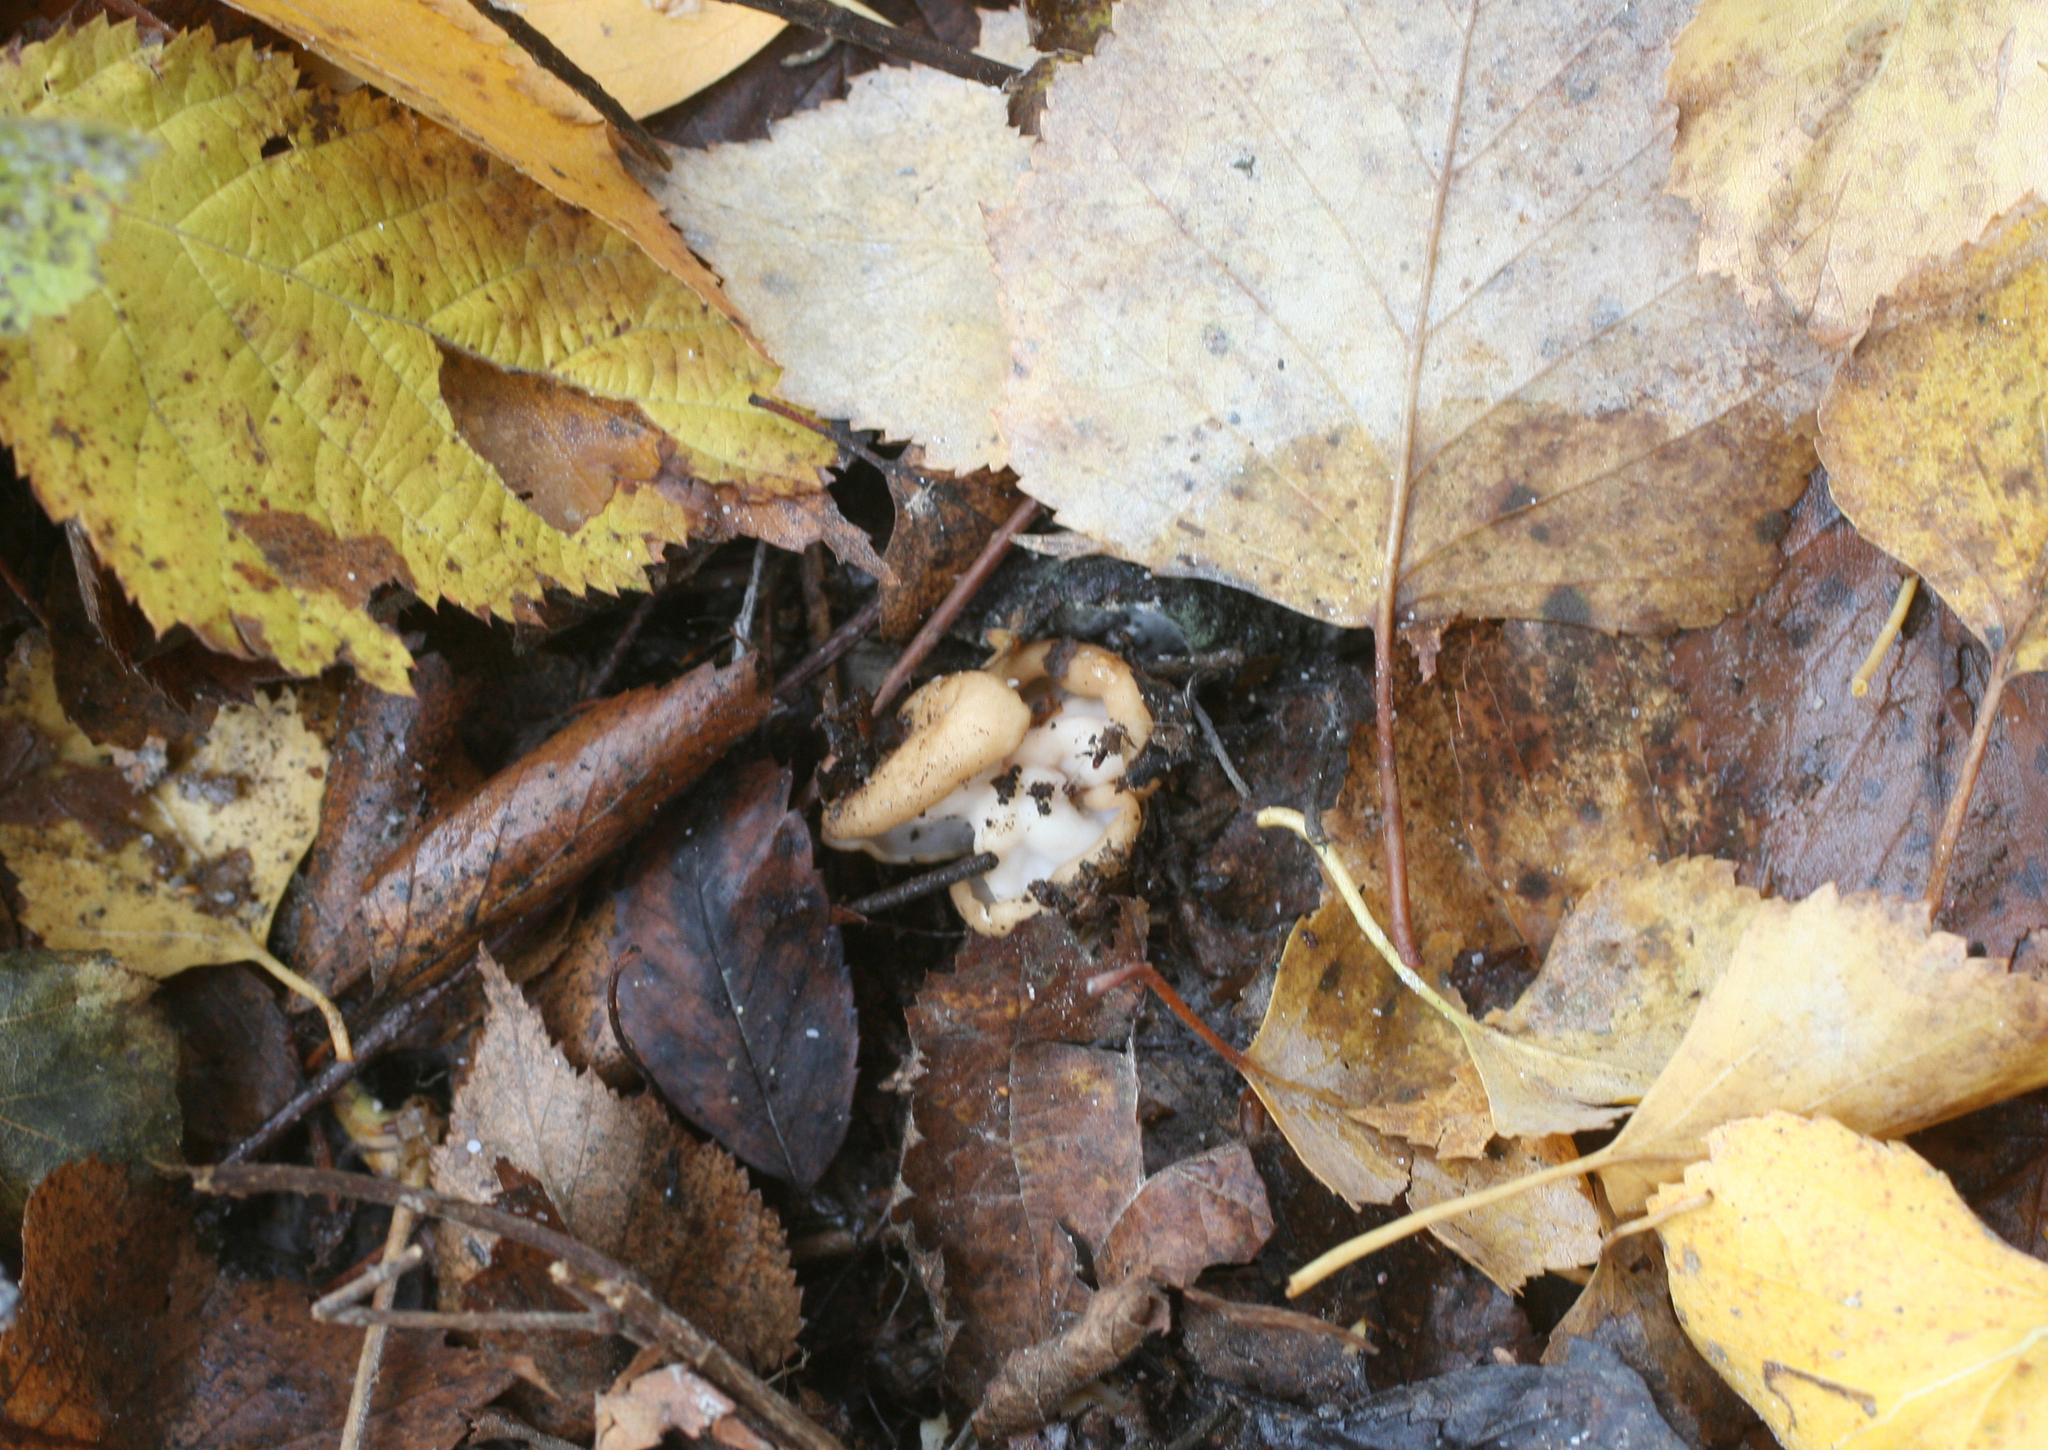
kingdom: Fungi
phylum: Ascomycota
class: Pezizomycetes
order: Pezizales
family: Helvellaceae
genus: Helvella
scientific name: Helvella crispa
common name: White saddle
